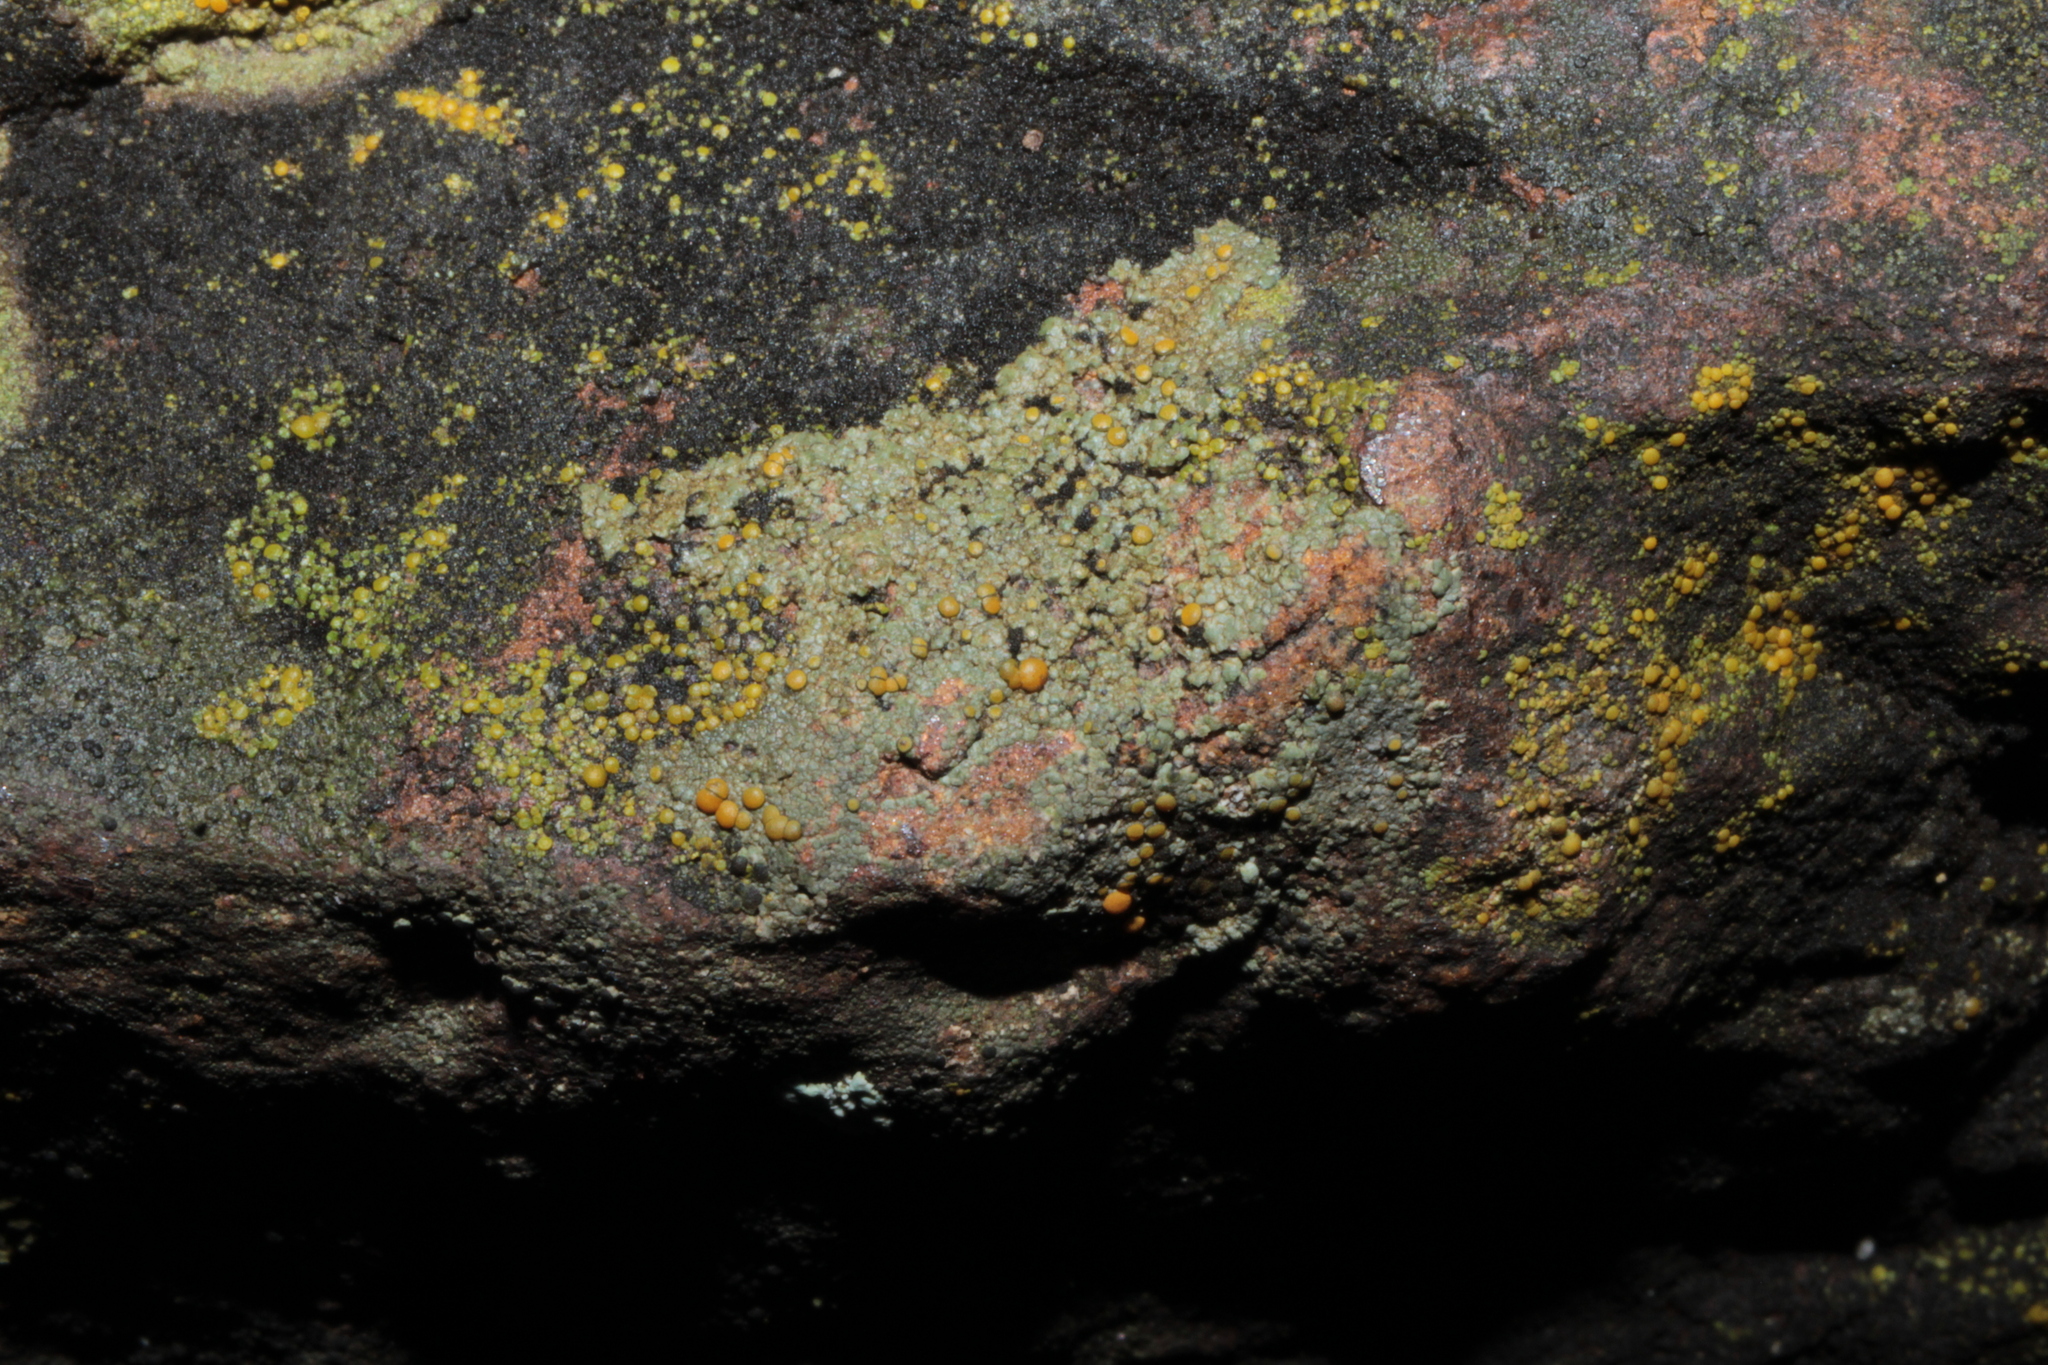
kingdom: Fungi
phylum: Ascomycota
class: Lecanoromycetes
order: Teloschistales
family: Teloschistaceae
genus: Gyalolechia
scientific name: Gyalolechia flavovirescens
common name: Sulphur firedot
